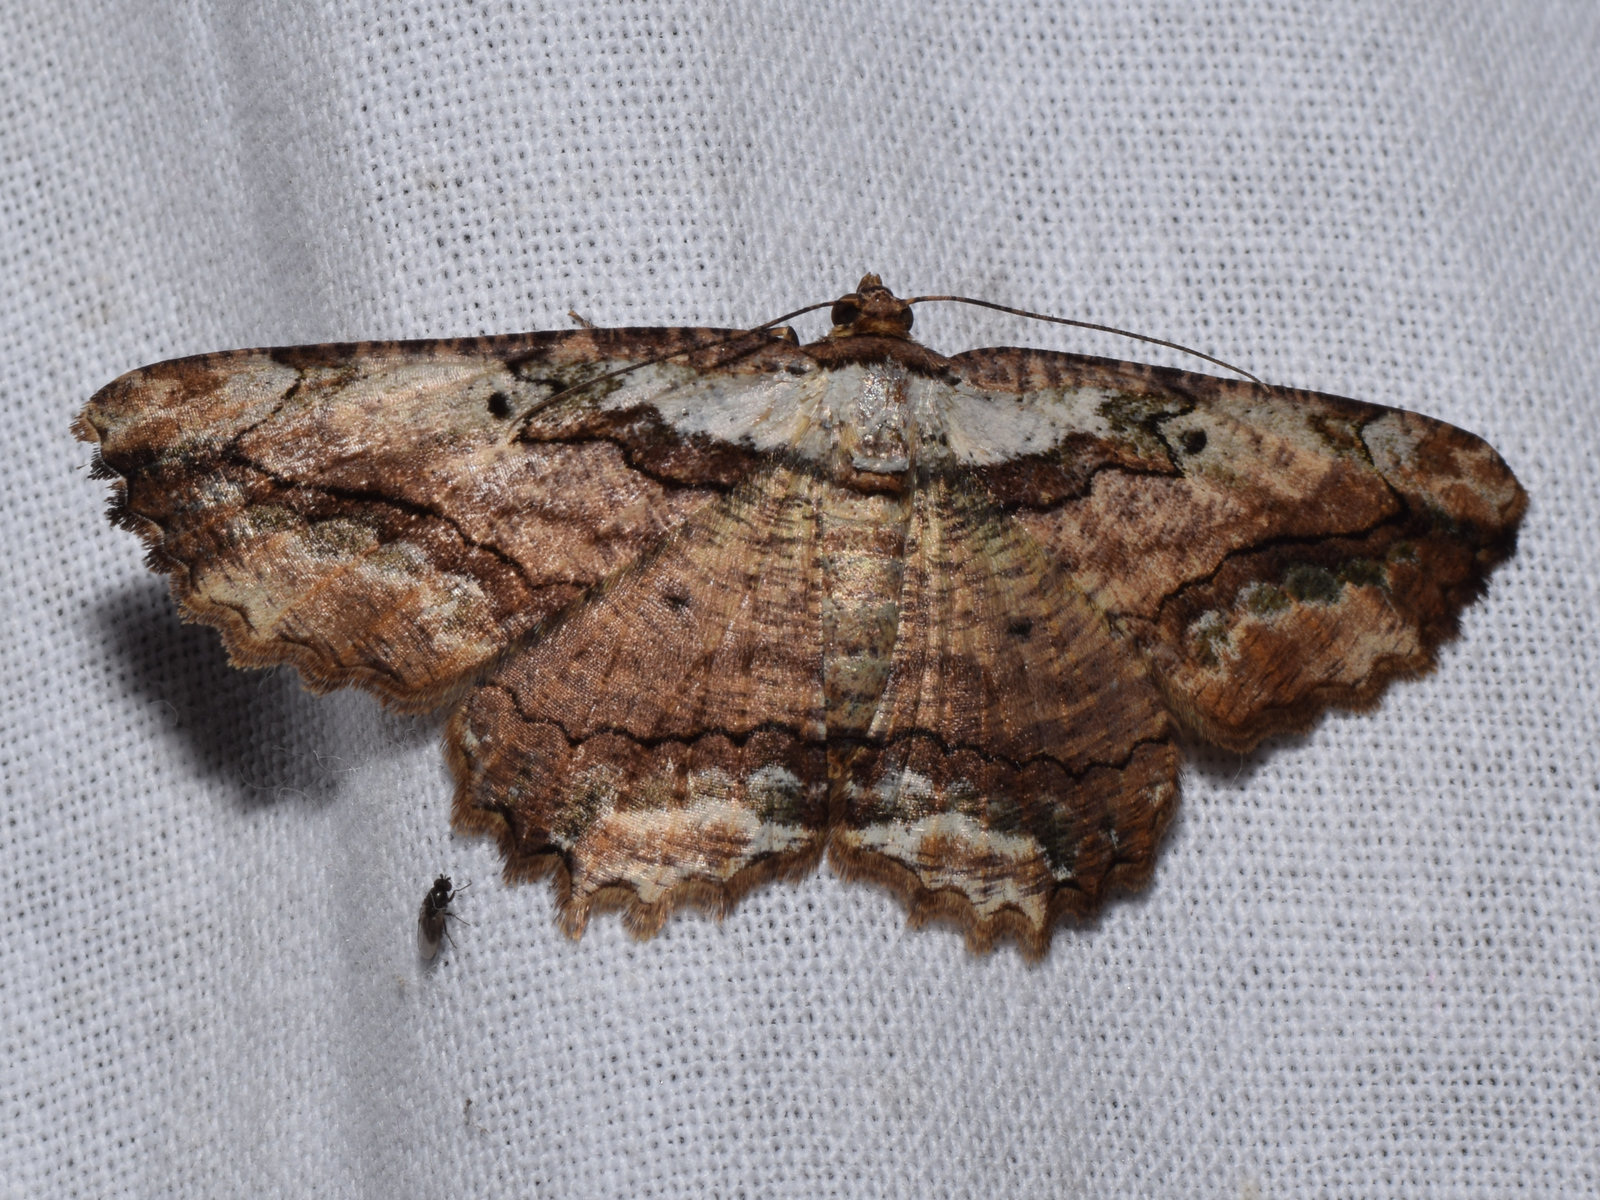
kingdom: Animalia
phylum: Arthropoda
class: Insecta
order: Lepidoptera
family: Geometridae
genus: Menophra
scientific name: Menophra subplagiata
